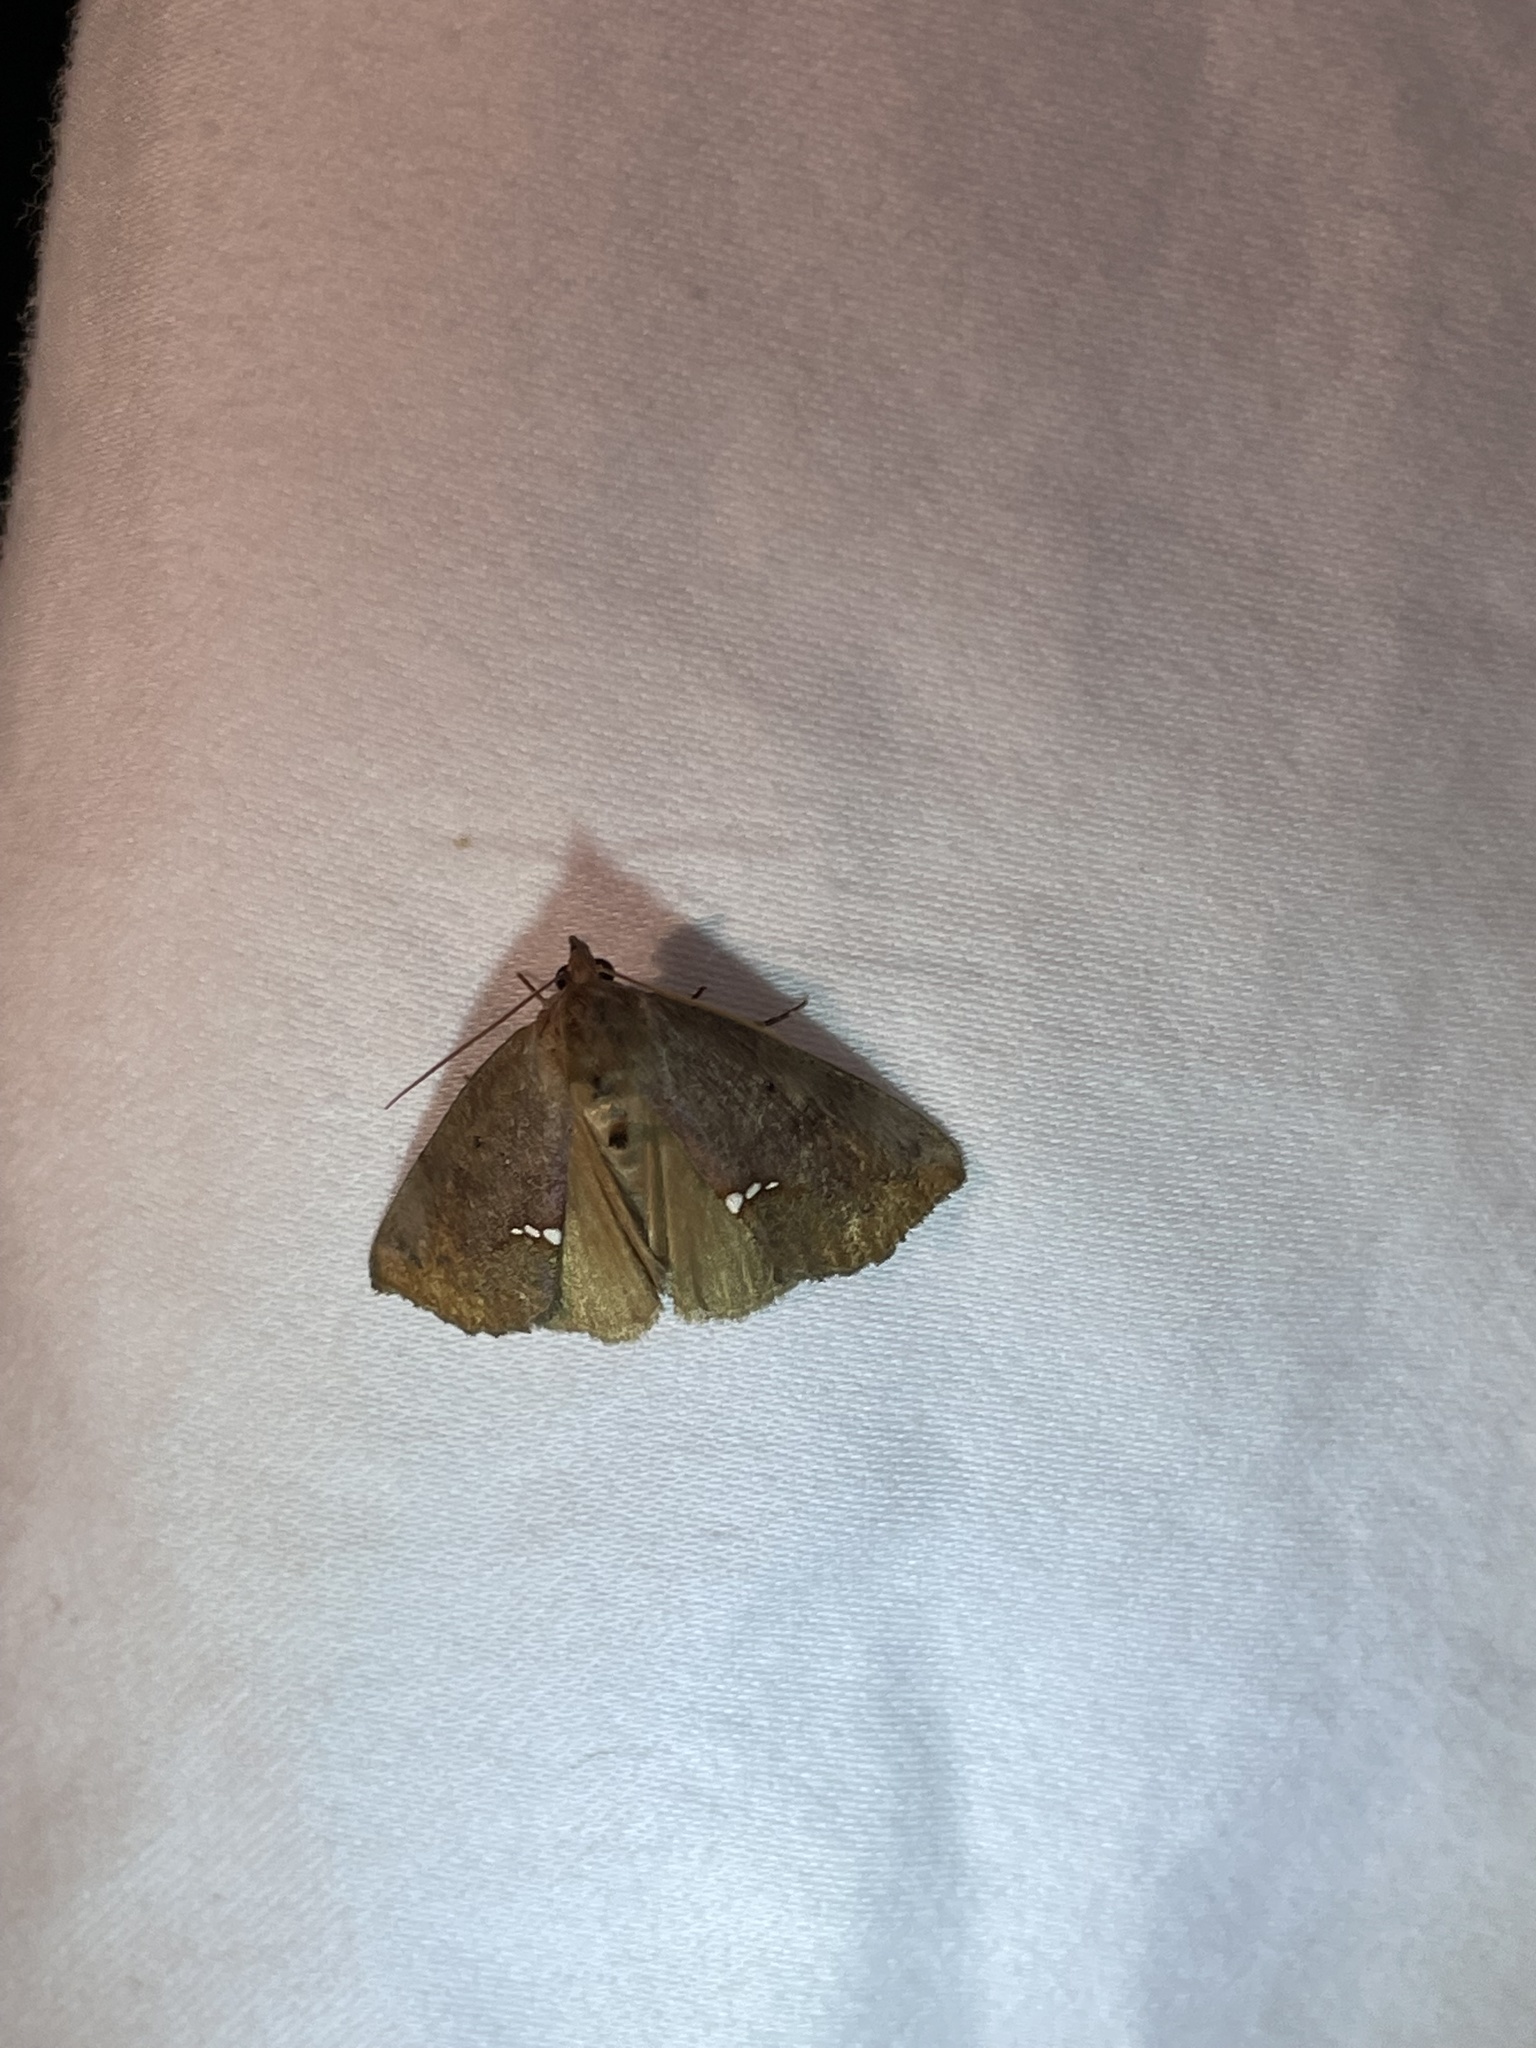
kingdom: Animalia
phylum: Arthropoda
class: Insecta
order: Lepidoptera
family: Erebidae
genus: Hypsoropha
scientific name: Hypsoropha hormos
